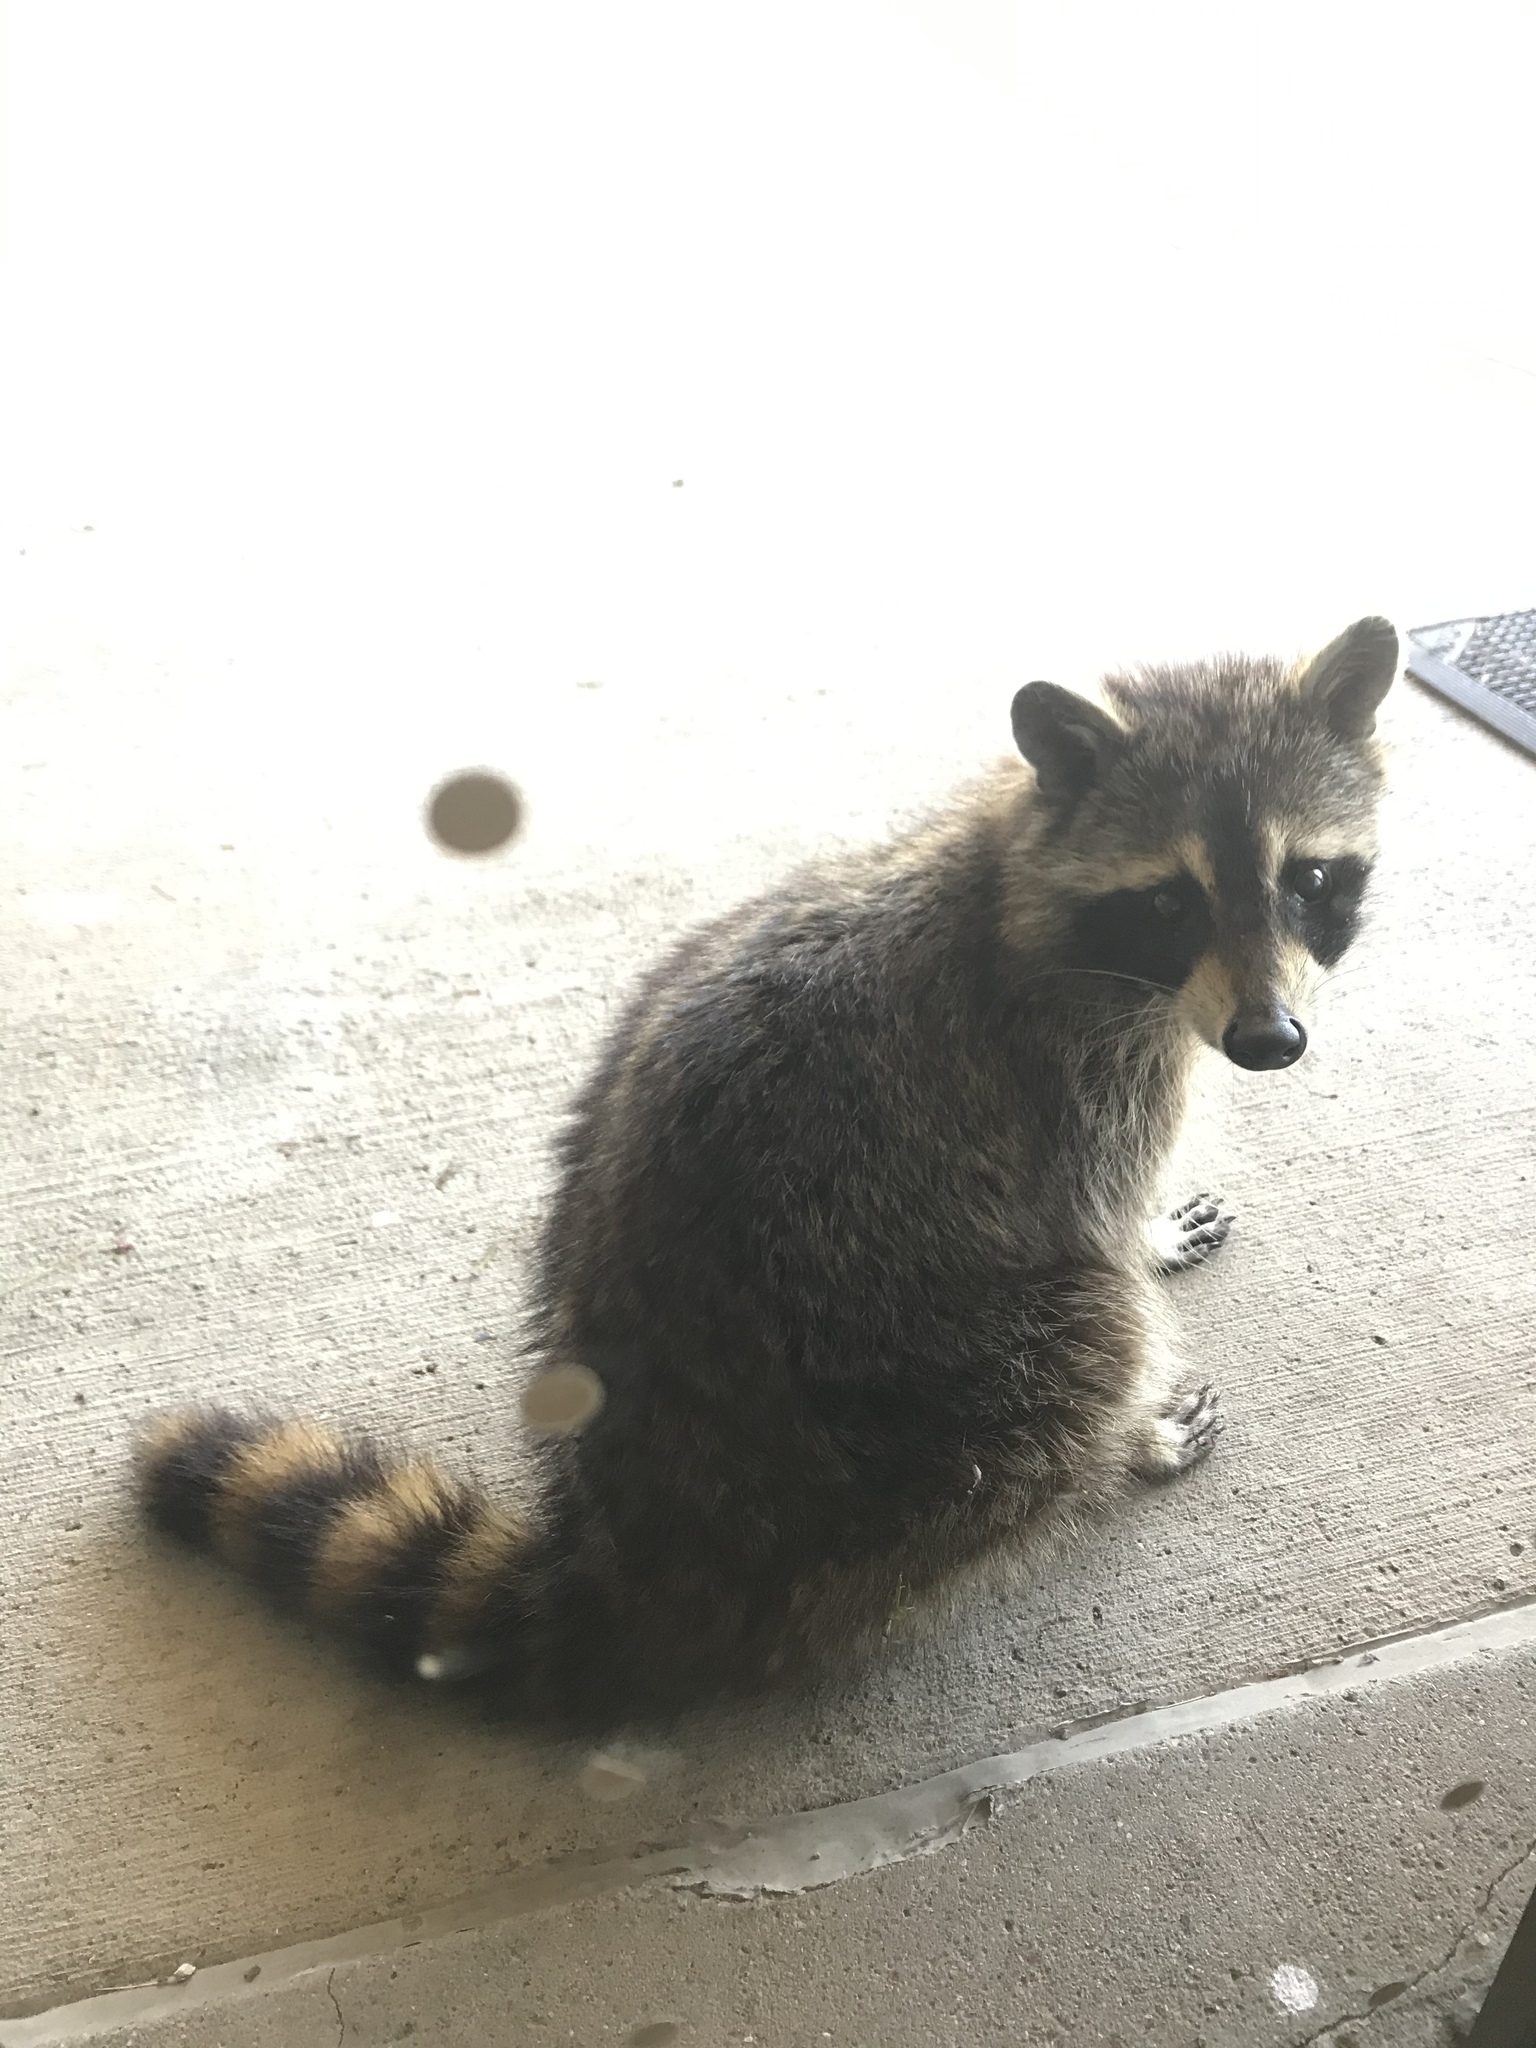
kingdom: Animalia
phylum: Chordata
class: Mammalia
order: Carnivora
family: Procyonidae
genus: Procyon
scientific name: Procyon lotor
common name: Raccoon
